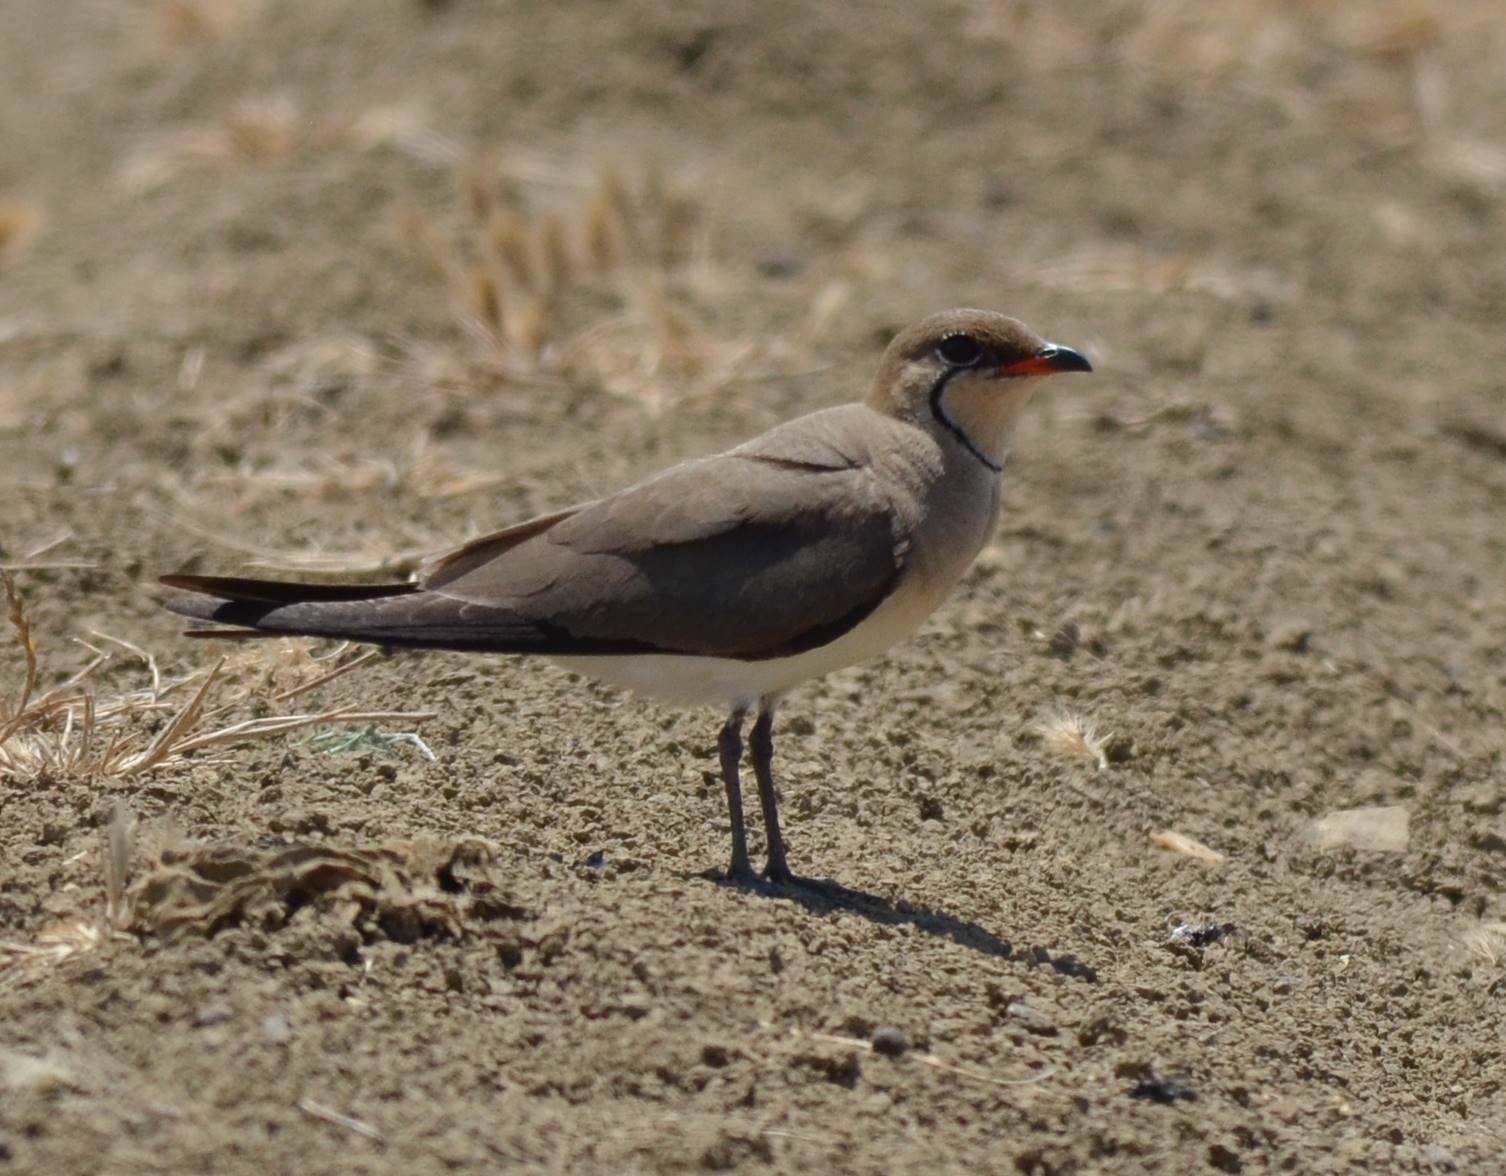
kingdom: Animalia
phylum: Chordata
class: Aves
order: Charadriiformes
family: Glareolidae
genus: Glareola
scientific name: Glareola pratincola
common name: Collared pratincole
